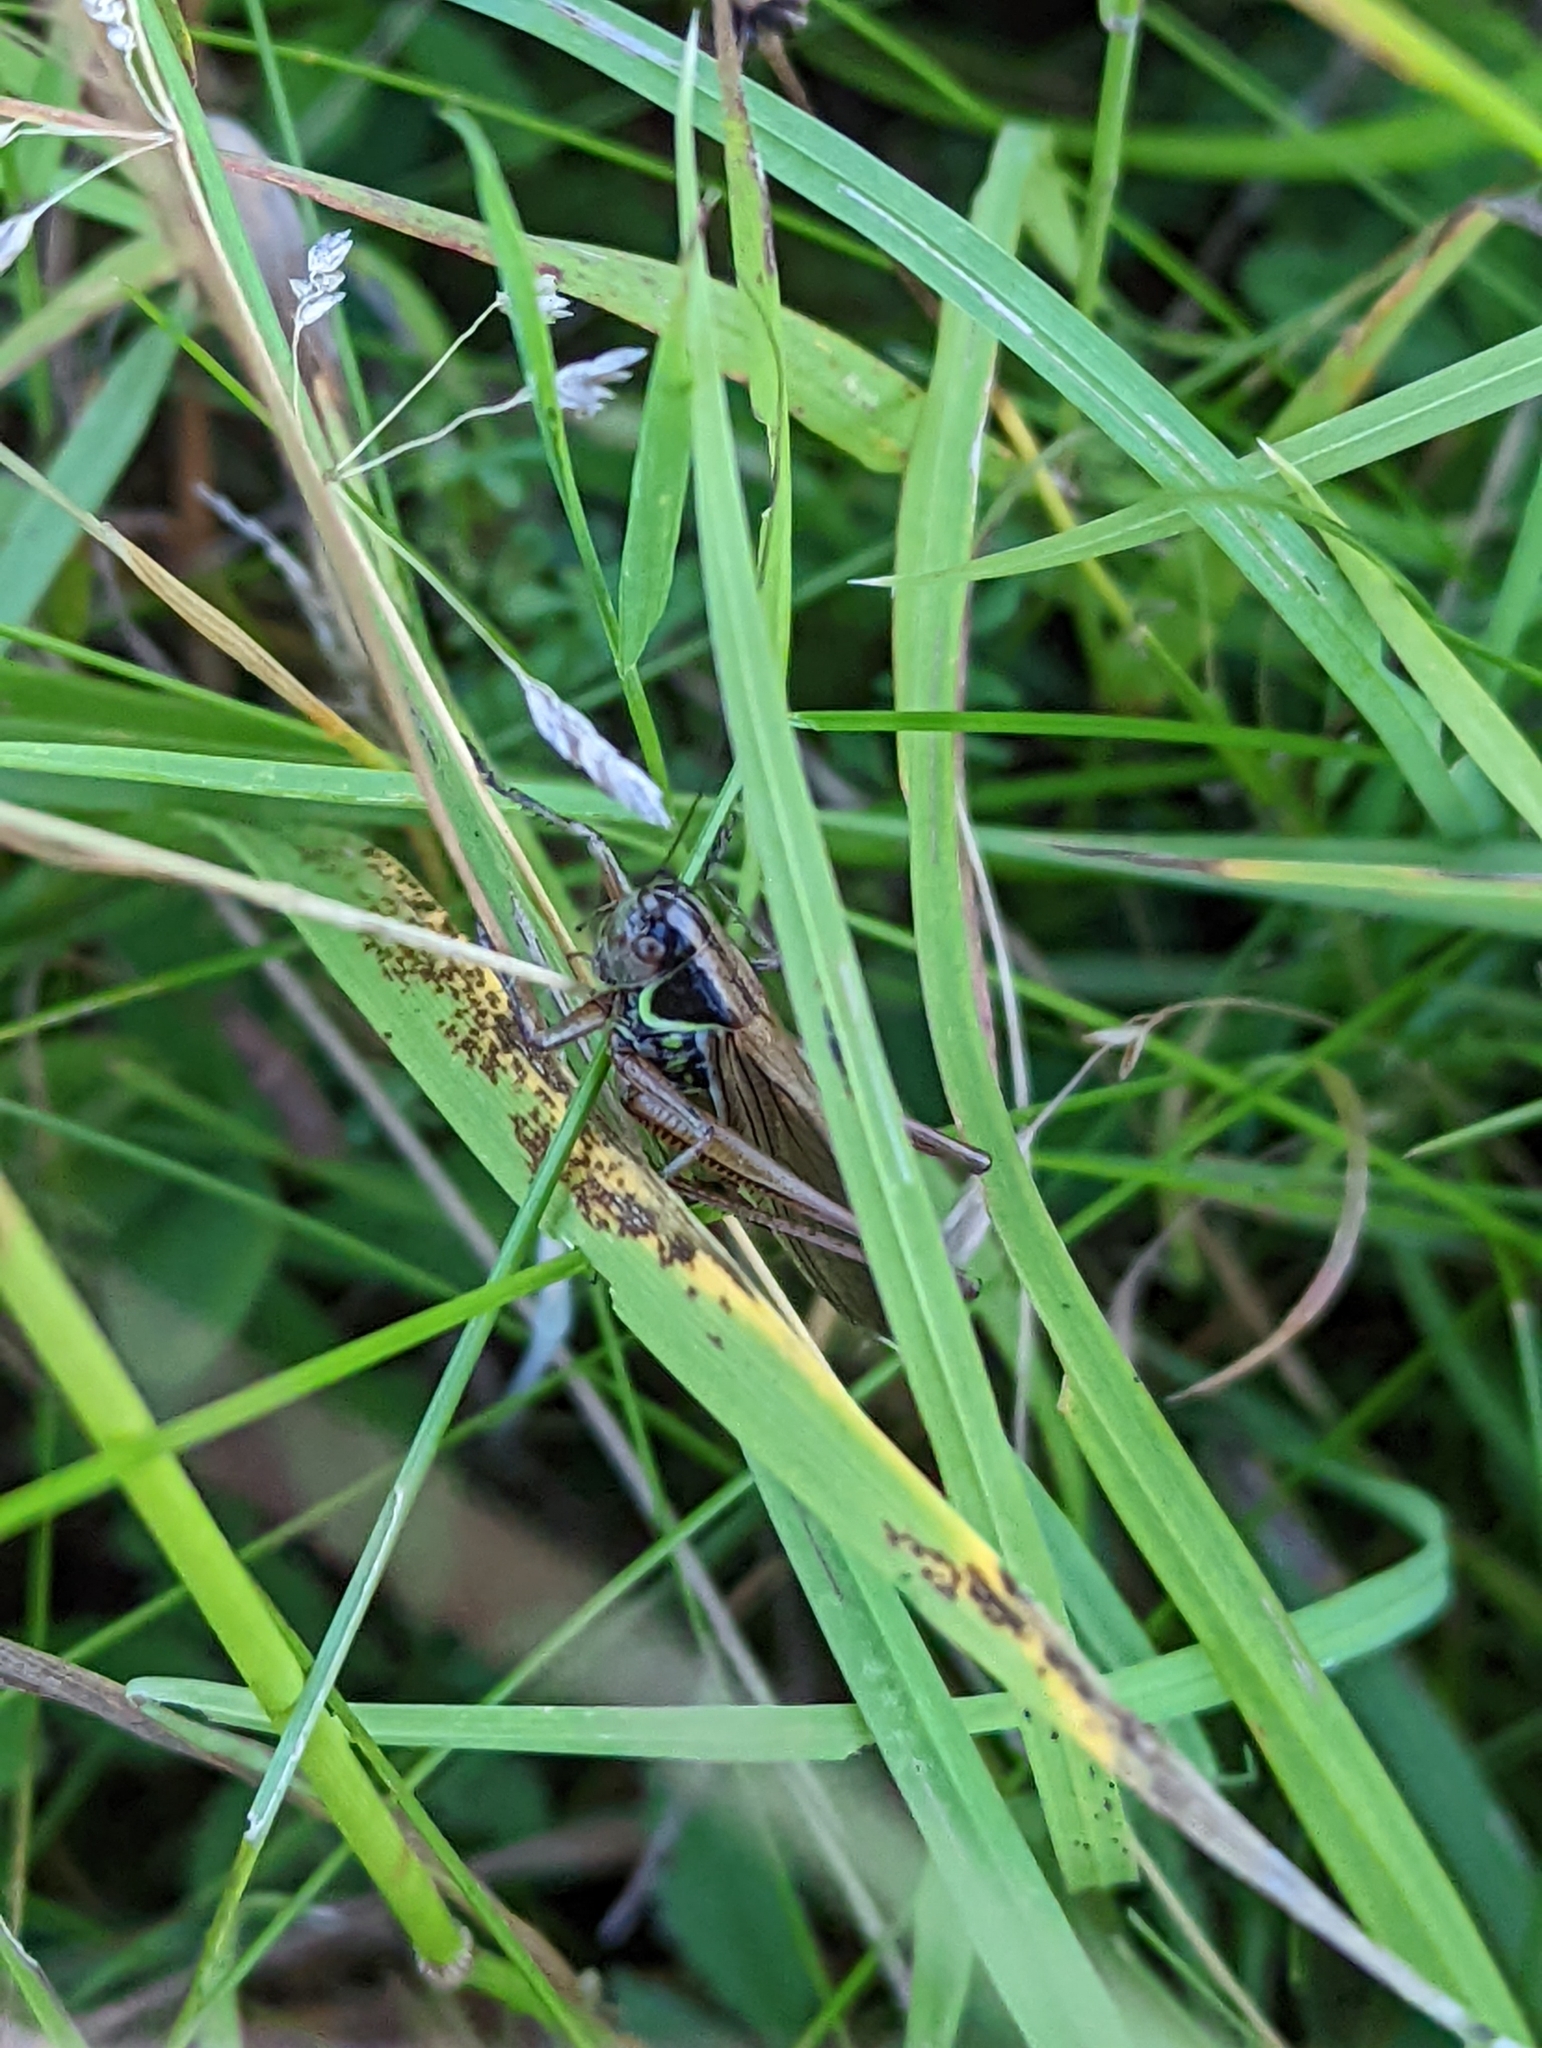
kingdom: Animalia
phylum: Arthropoda
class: Insecta
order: Orthoptera
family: Tettigoniidae
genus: Roeseliana
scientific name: Roeseliana roeselii
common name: Roesel's bush cricket
